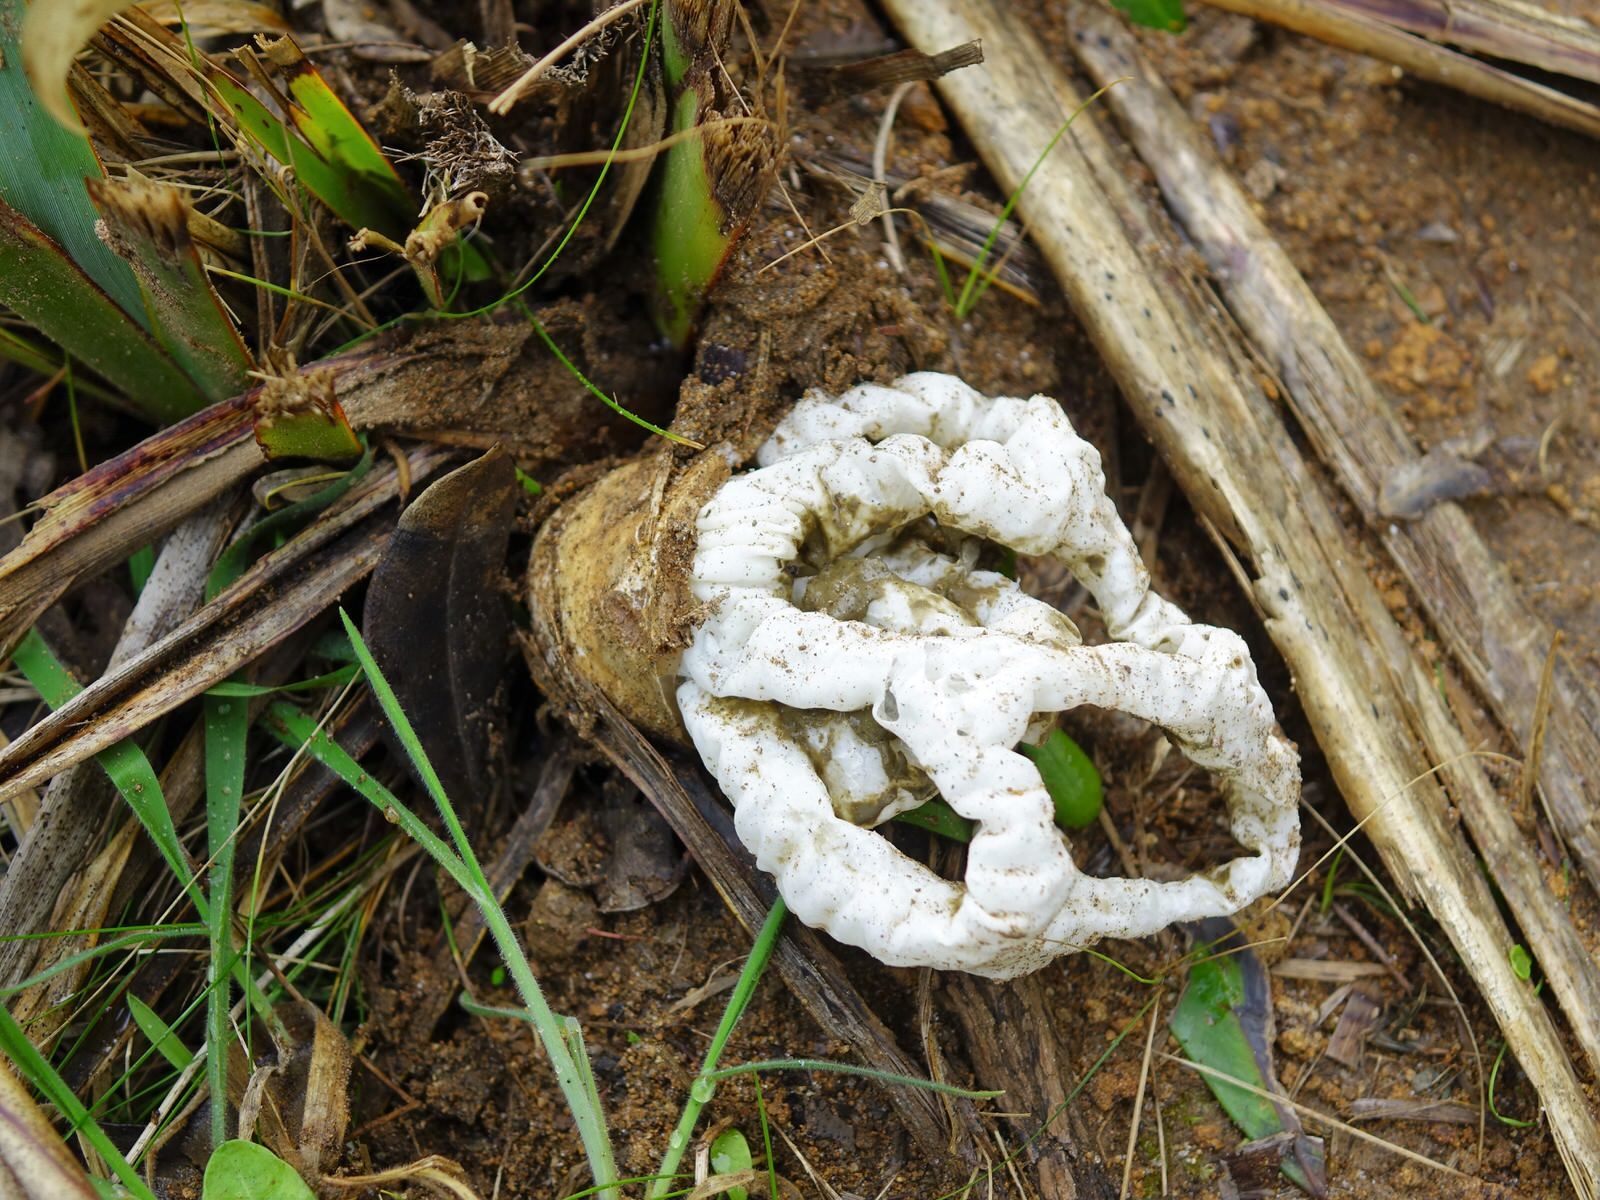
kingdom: Fungi
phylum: Basidiomycota
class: Agaricomycetes
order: Phallales
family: Phallaceae
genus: Ileodictyon
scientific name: Ileodictyon cibarium
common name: Basket fungus
